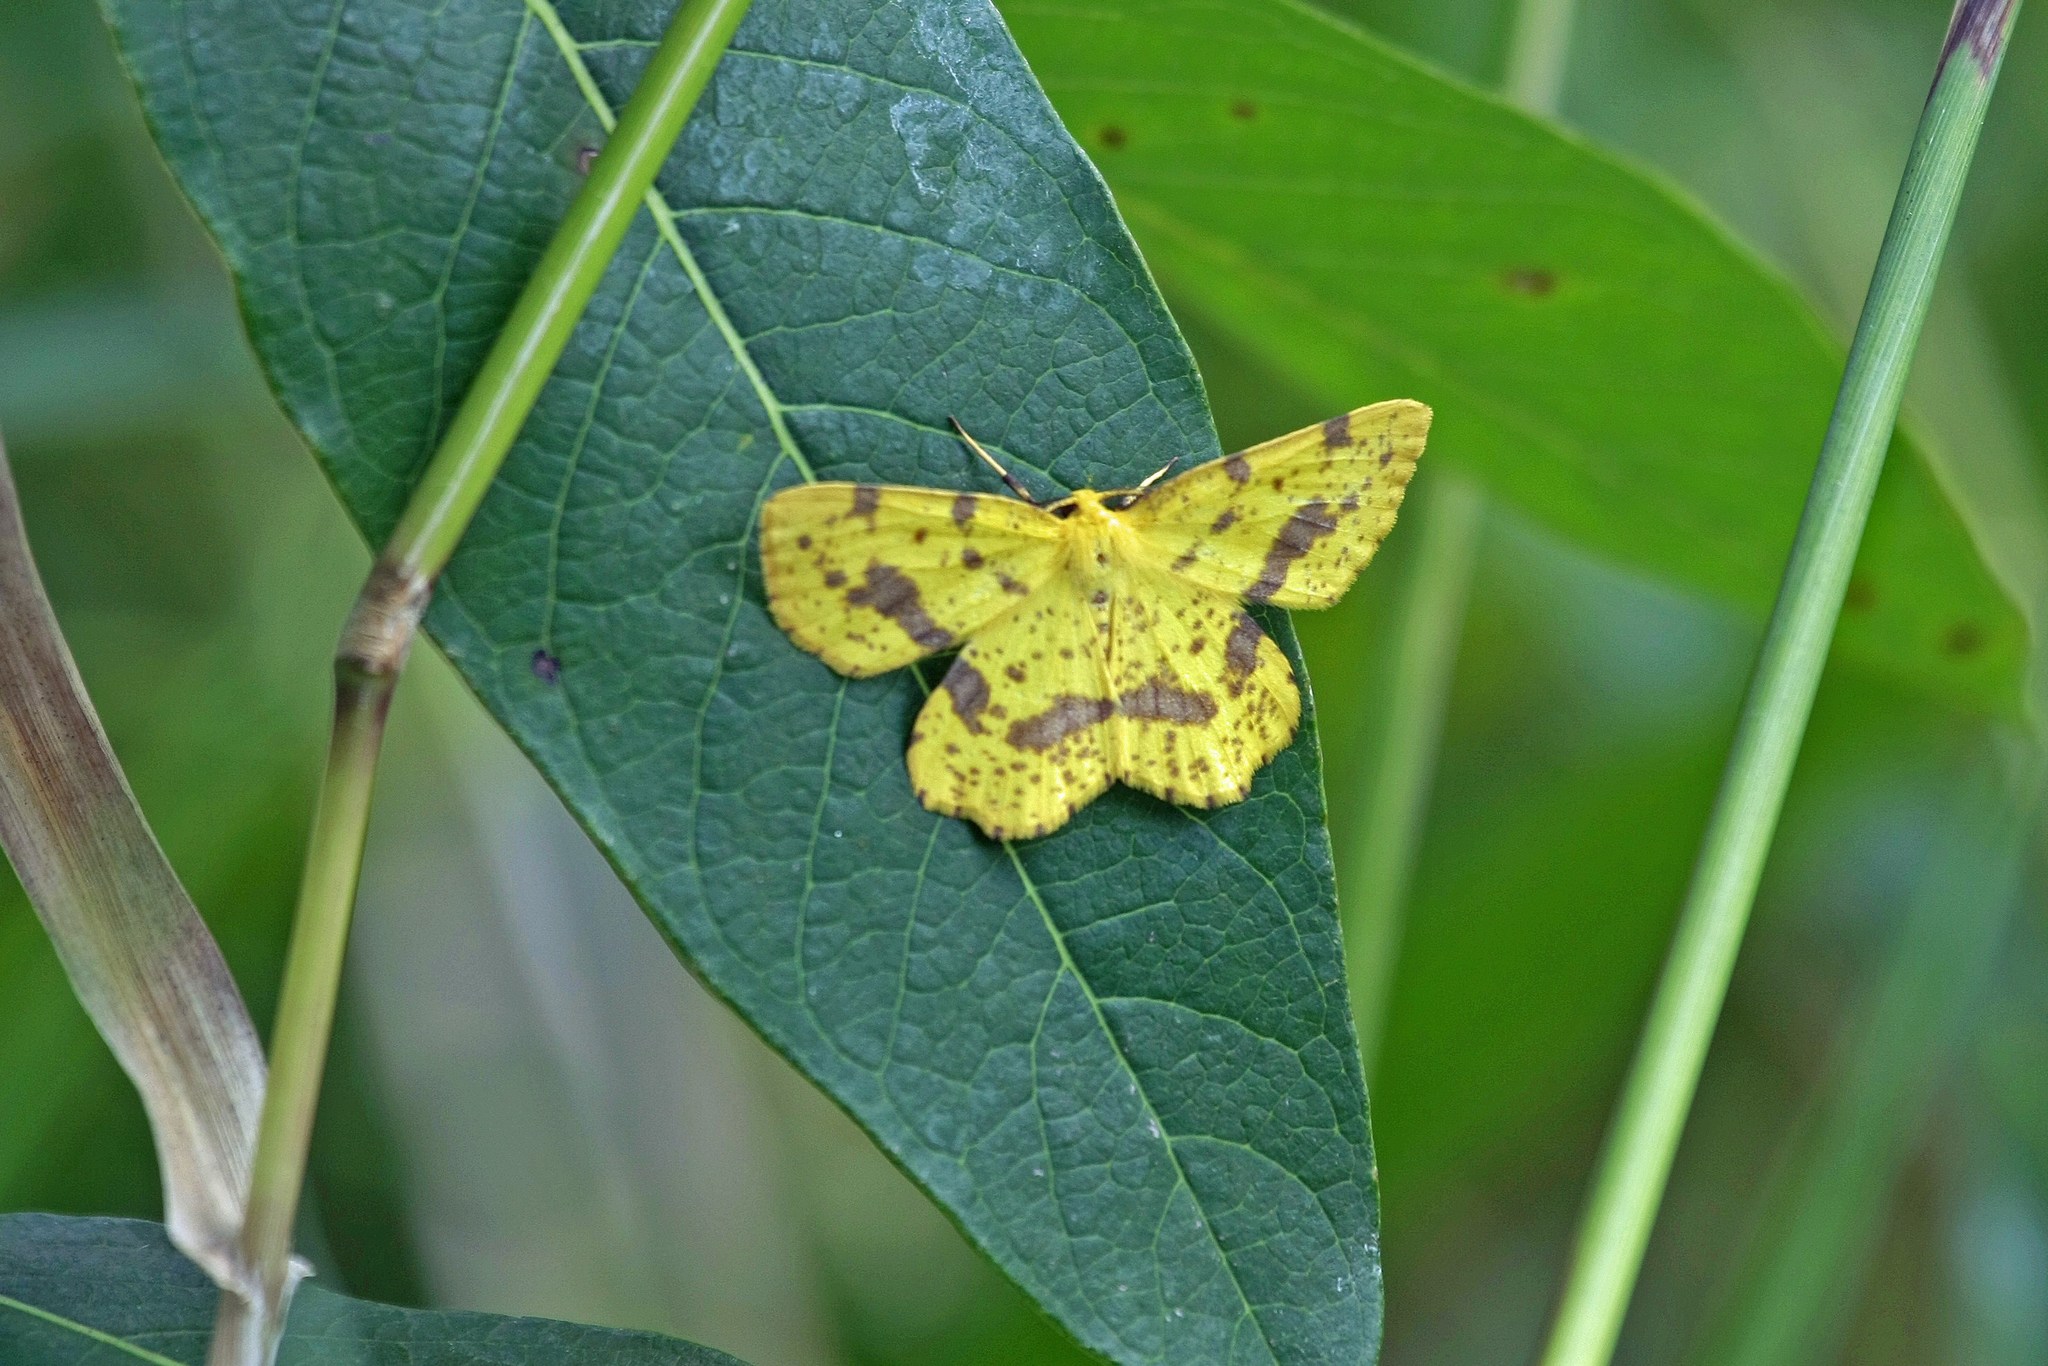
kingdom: Animalia
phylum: Arthropoda
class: Insecta
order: Lepidoptera
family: Geometridae
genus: Xanthotype
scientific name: Xanthotype
